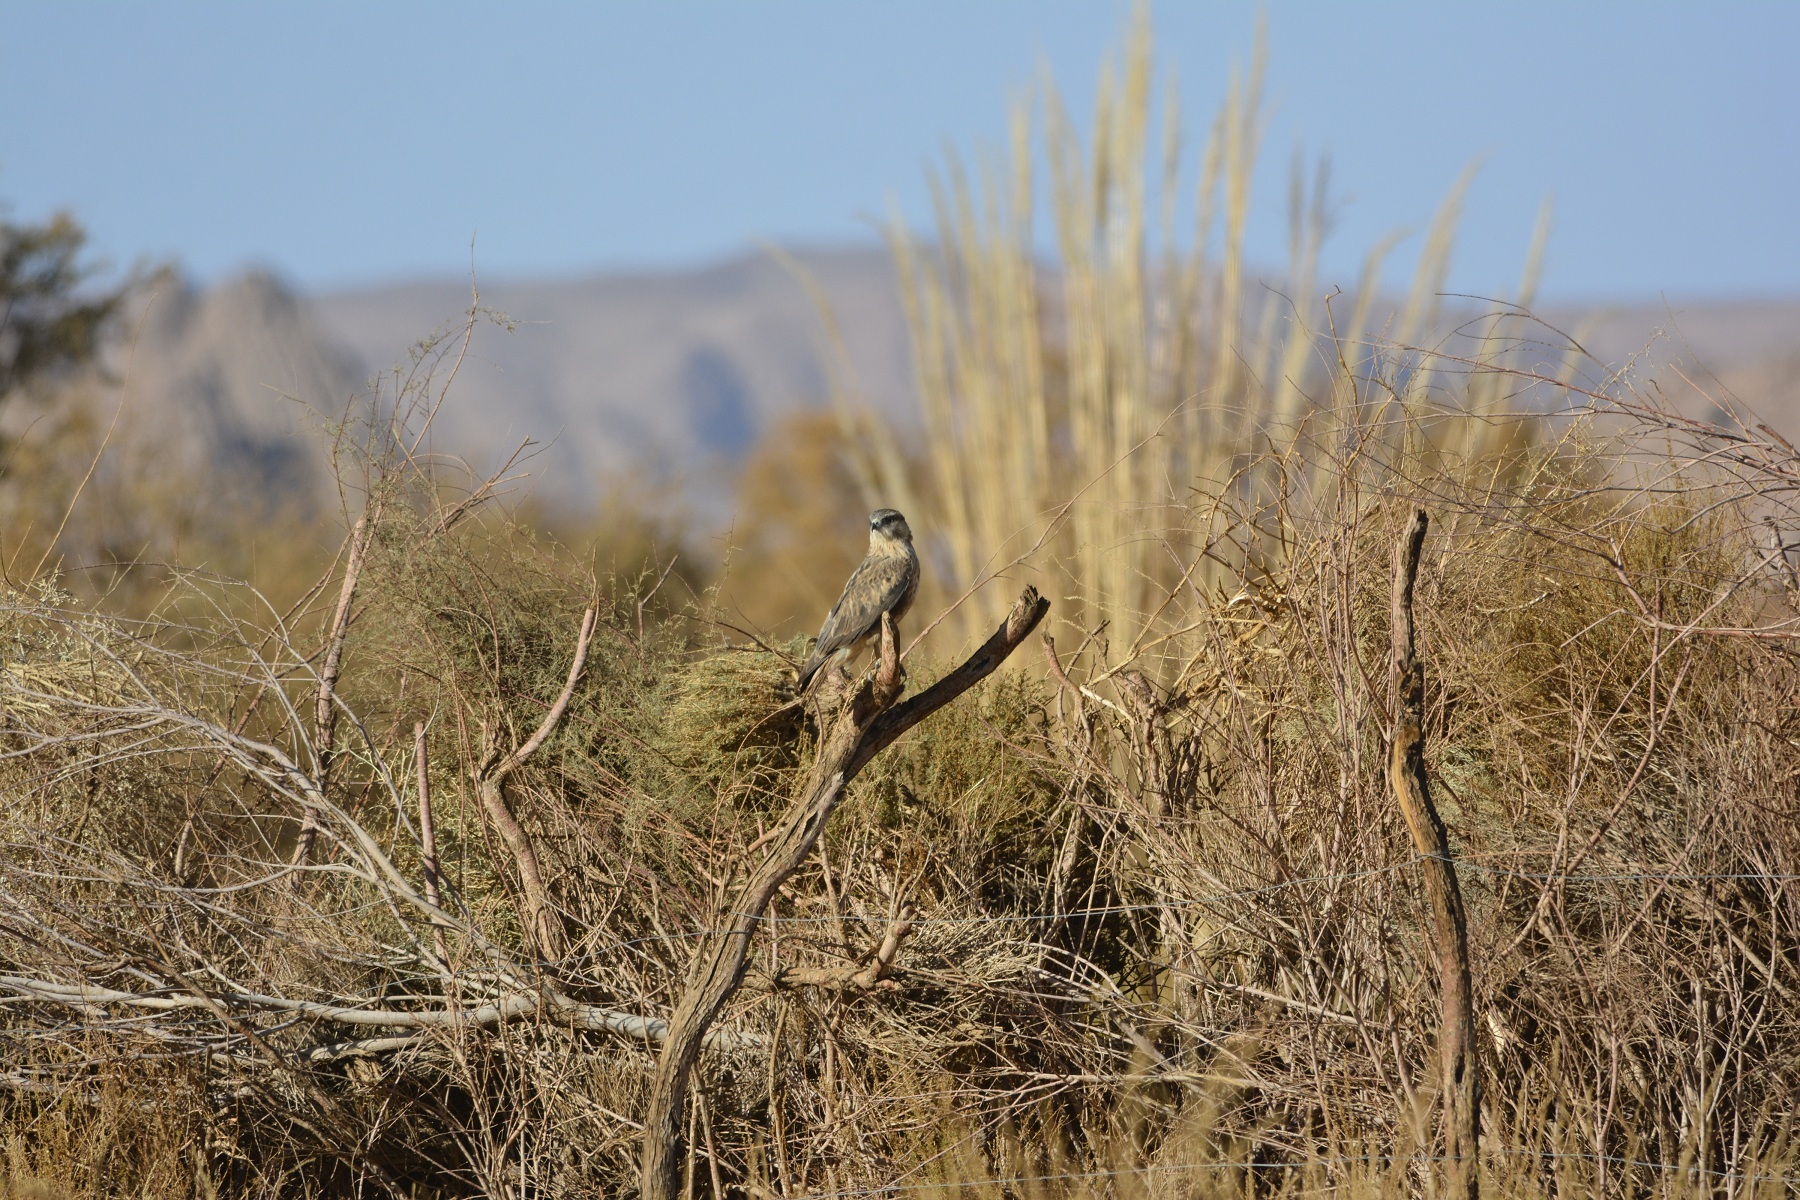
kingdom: Animalia
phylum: Chordata
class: Aves
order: Accipitriformes
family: Accipitridae
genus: Buteo
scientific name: Buteo rufinus
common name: Long-legged buzzard
